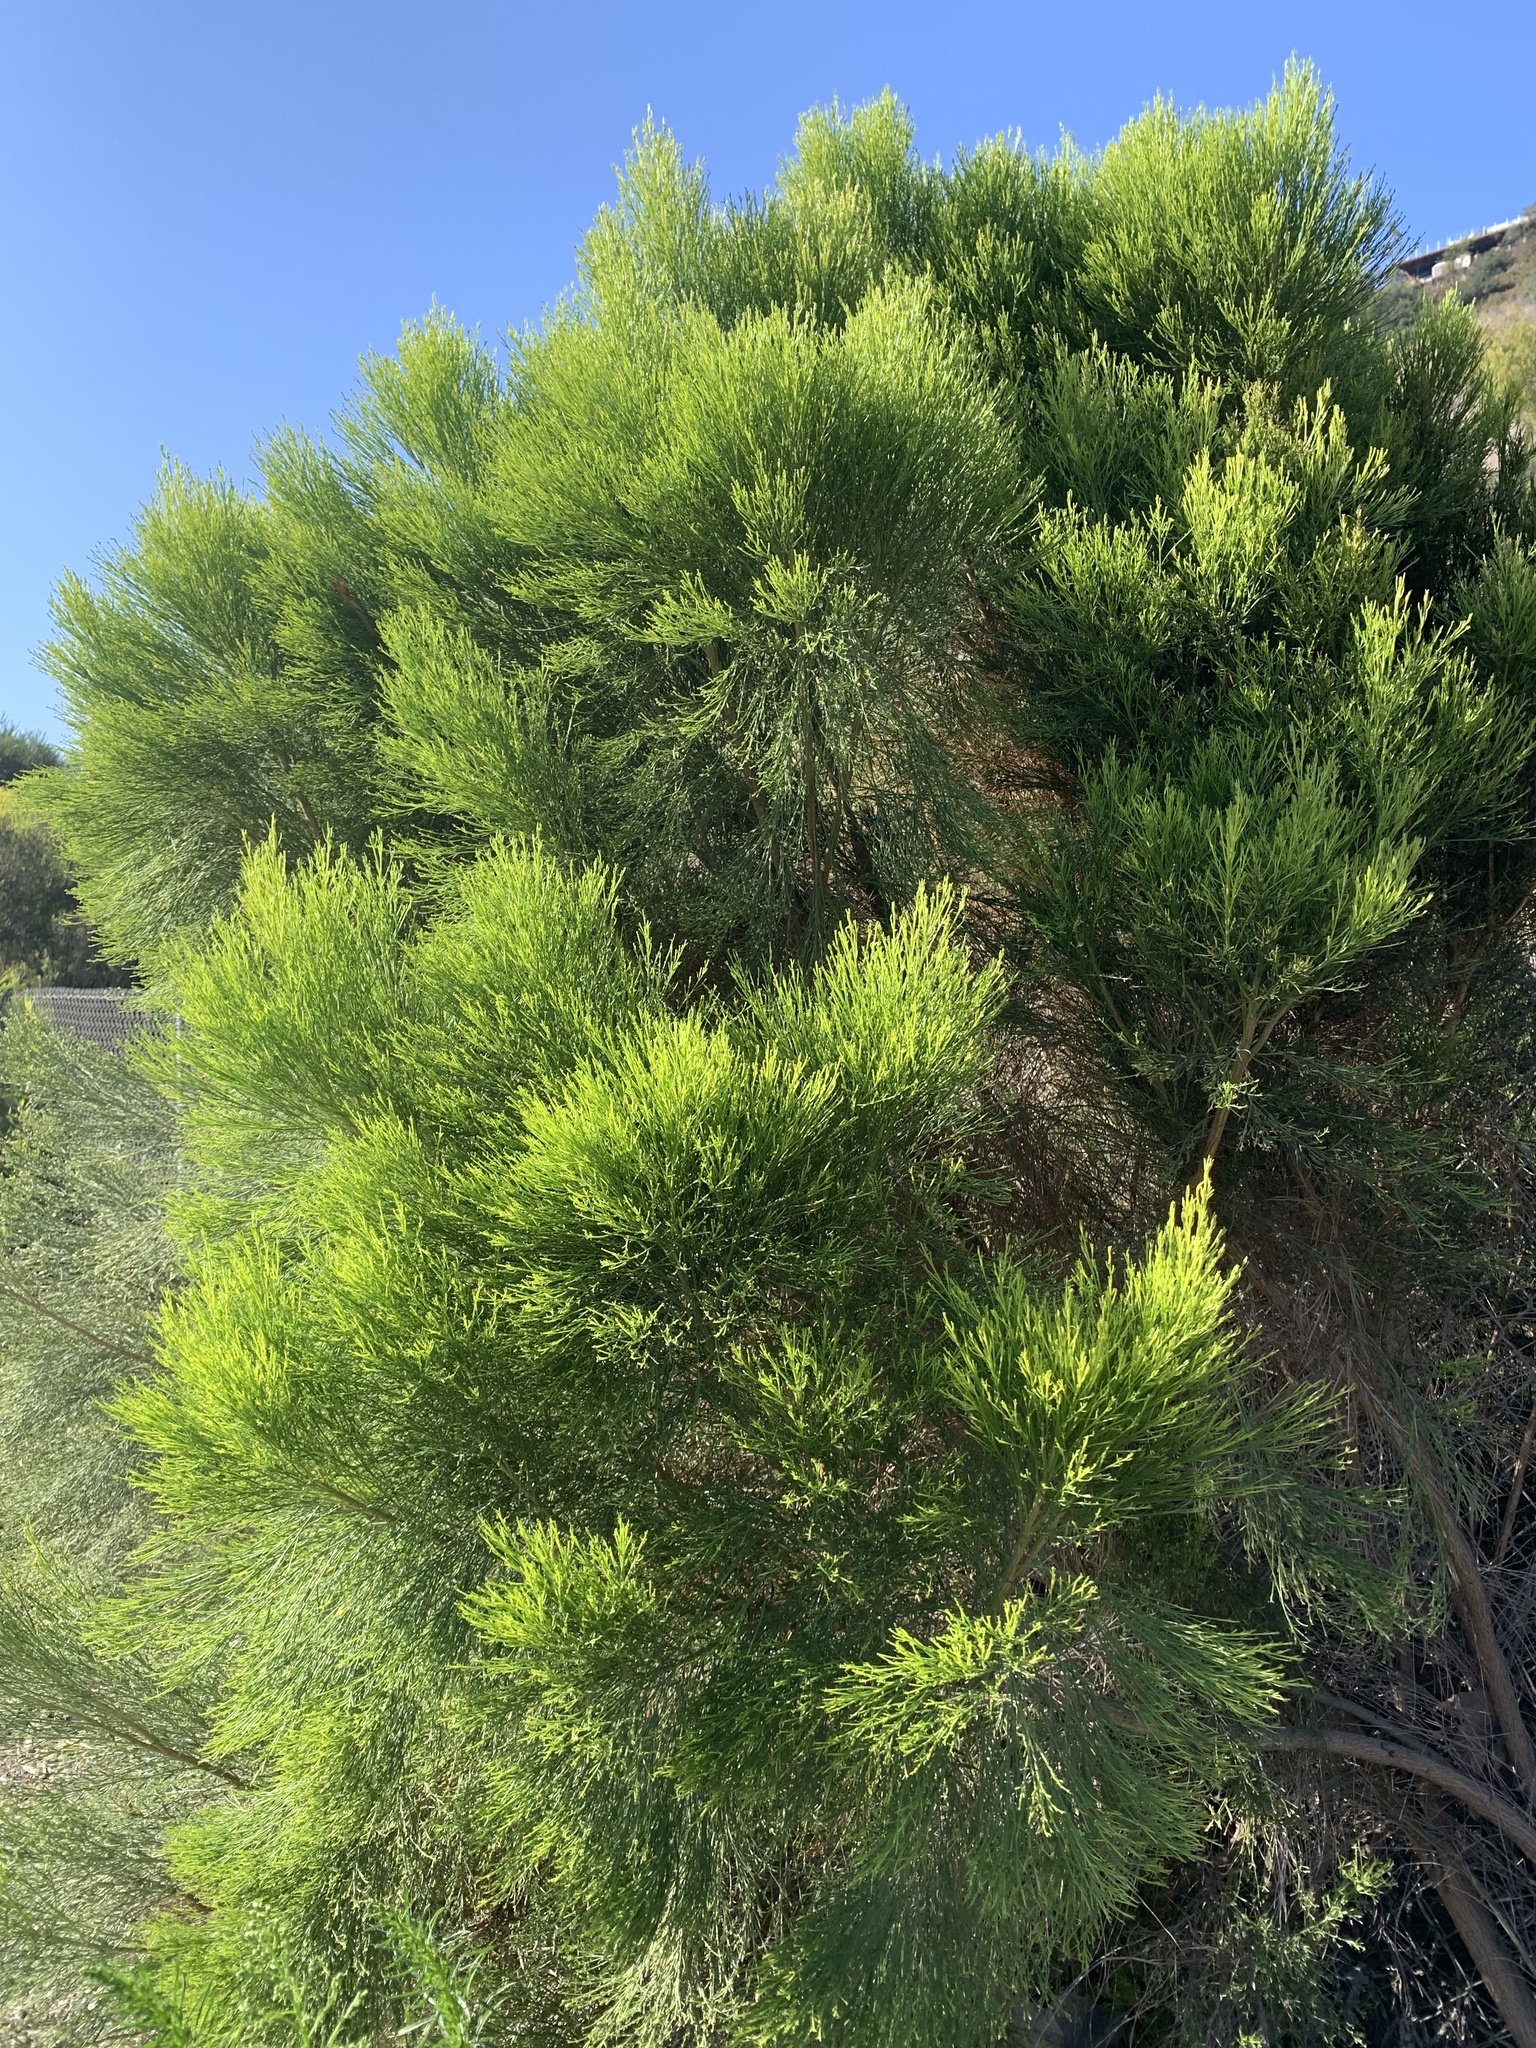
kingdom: Plantae
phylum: Tracheophyta
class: Magnoliopsida
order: Asterales
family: Asteraceae
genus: Baccharis
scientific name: Baccharis sarothroides
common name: Desert-broom
